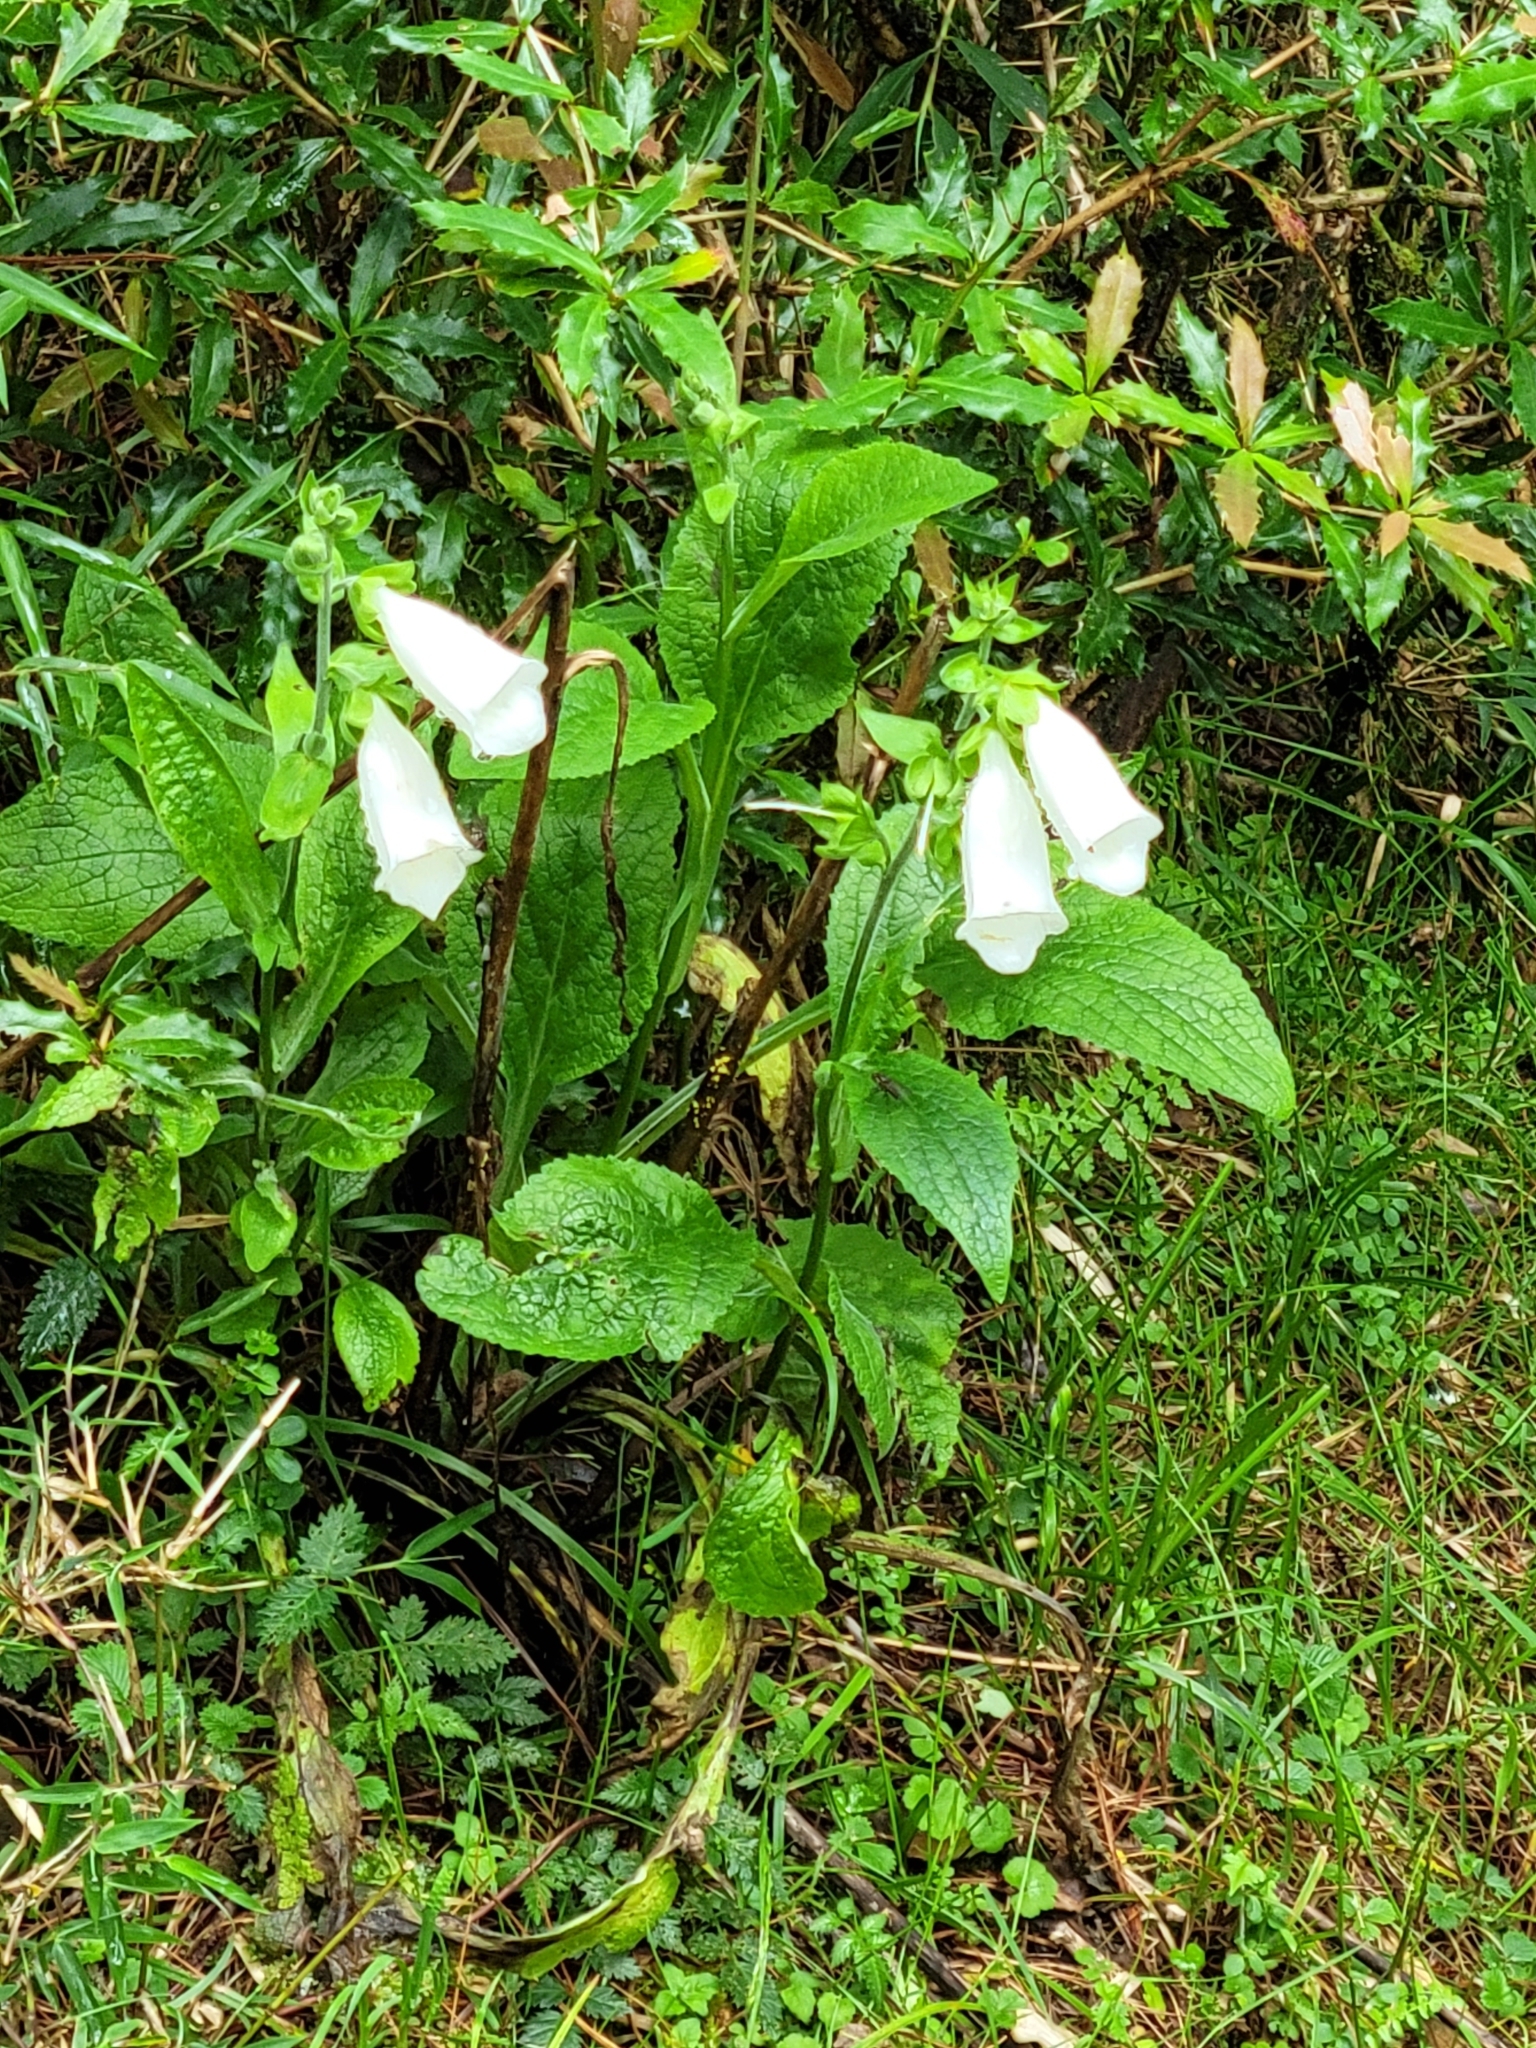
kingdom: Plantae
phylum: Tracheophyta
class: Magnoliopsida
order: Lamiales
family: Plantaginaceae
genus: Digitalis
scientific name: Digitalis purpurea
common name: Foxglove
